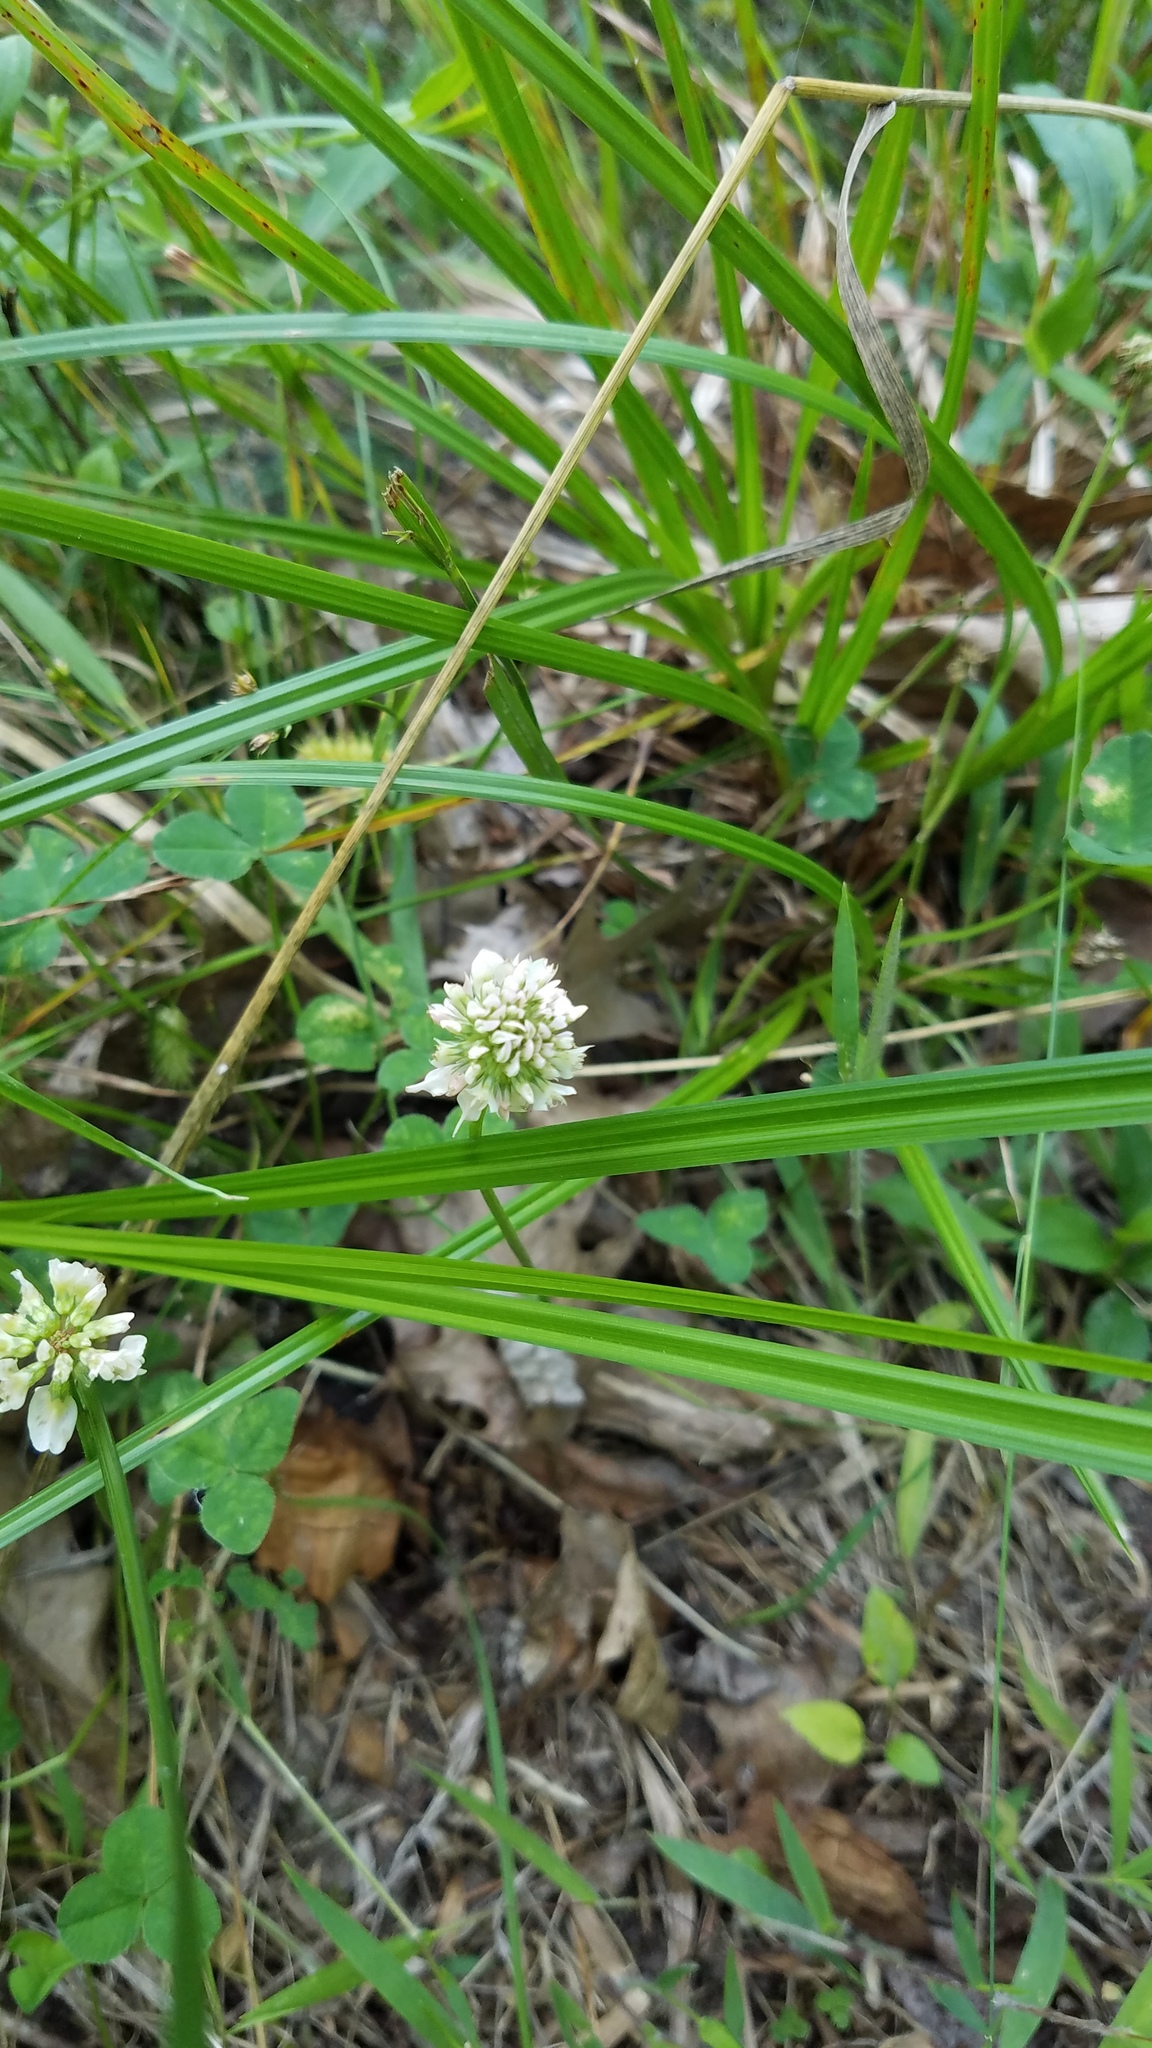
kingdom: Plantae
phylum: Tracheophyta
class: Magnoliopsida
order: Fabales
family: Fabaceae
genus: Trifolium
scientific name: Trifolium repens
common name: White clover
